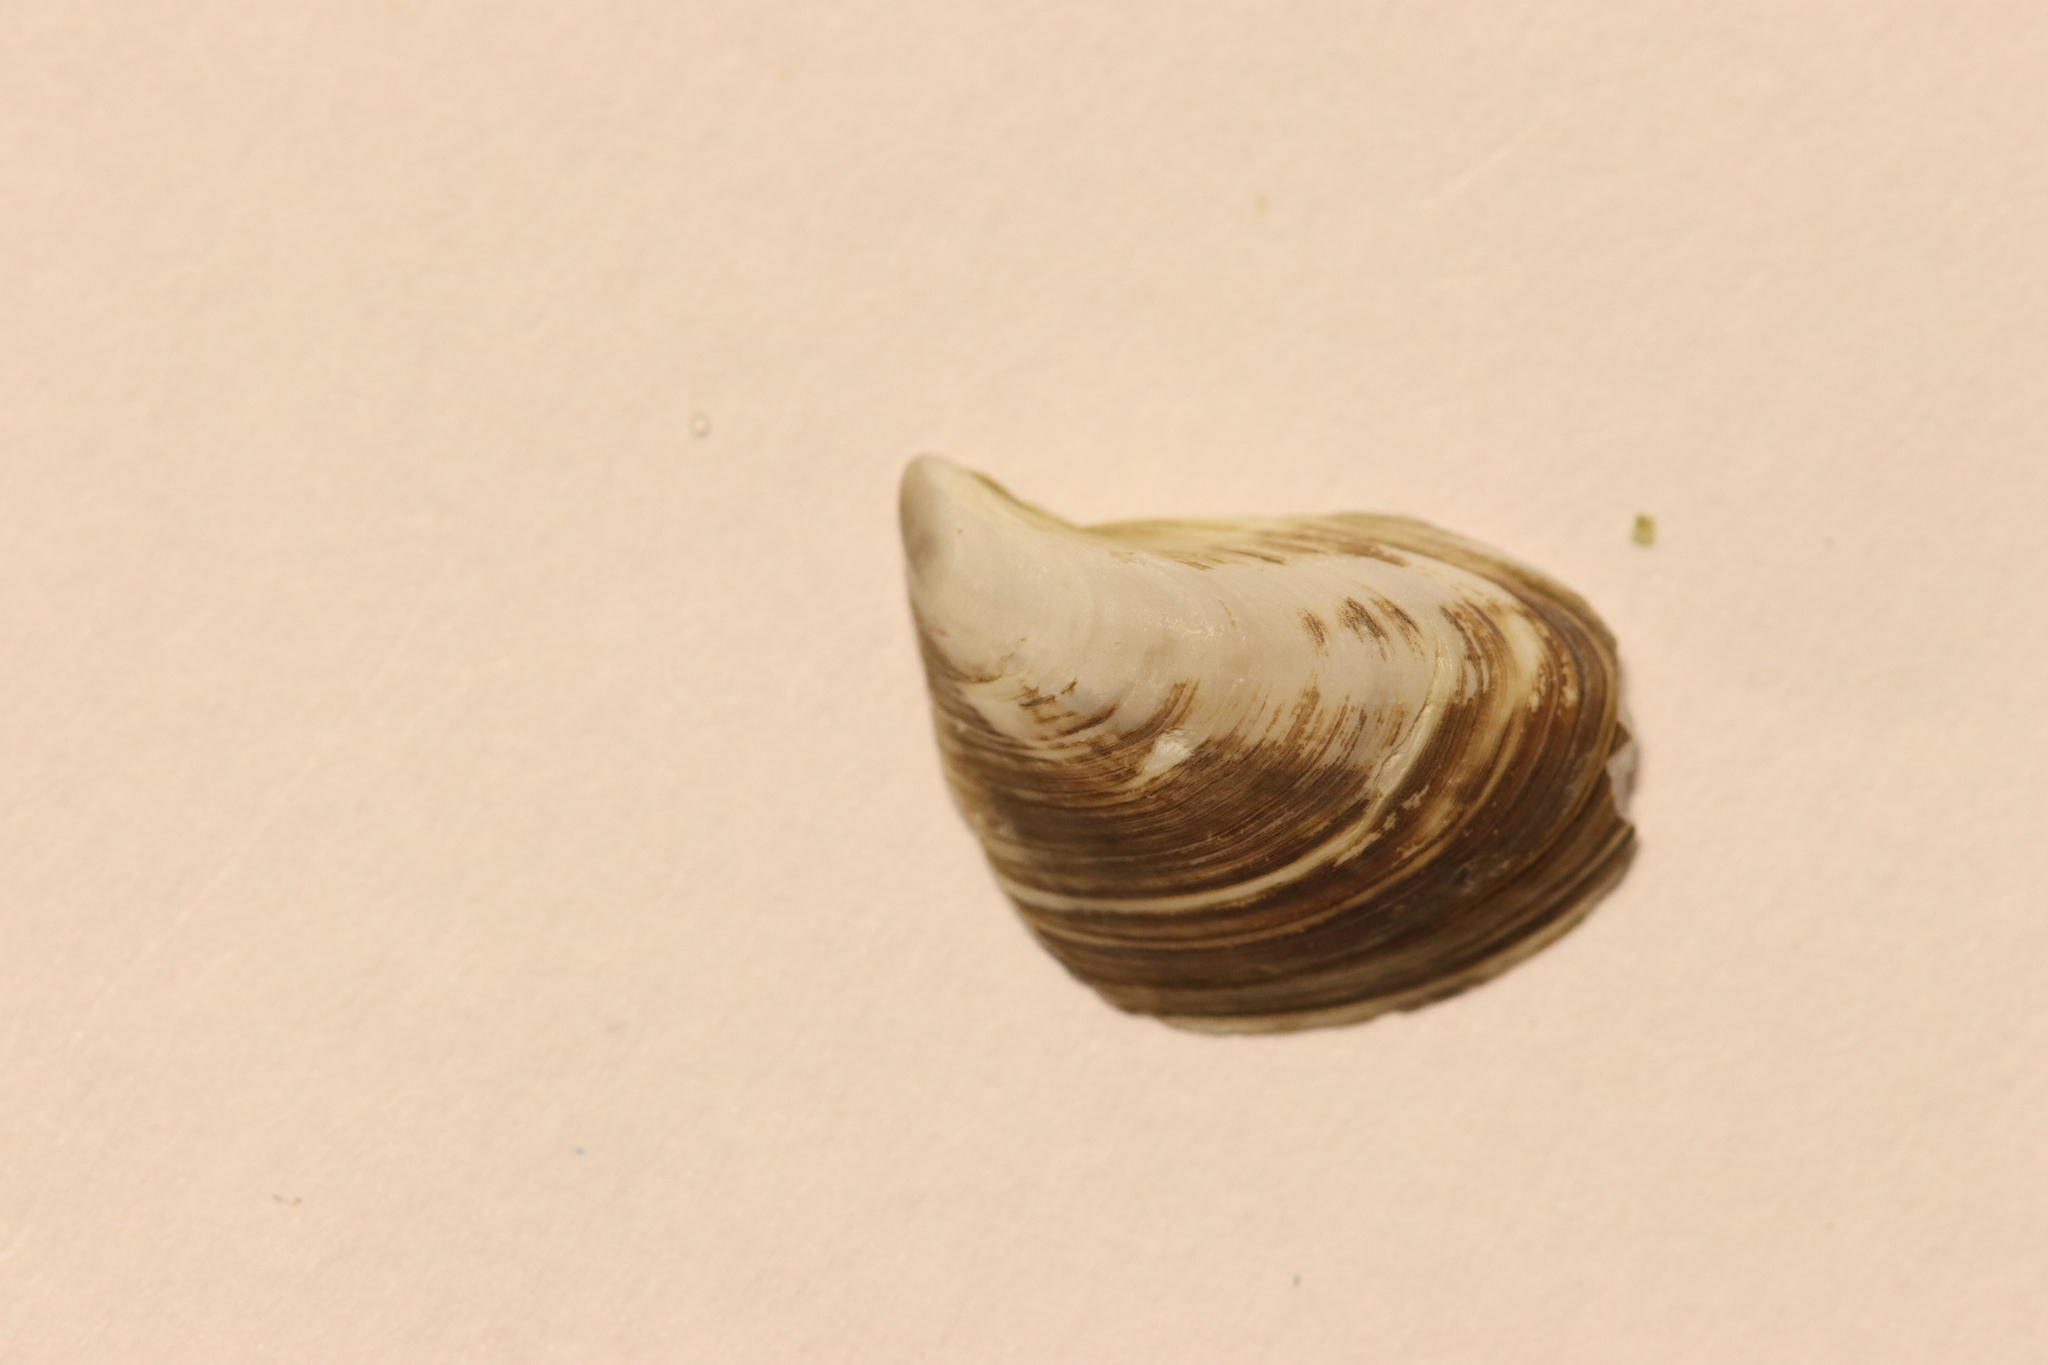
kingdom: Animalia
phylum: Mollusca
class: Bivalvia
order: Myida
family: Dreissenidae
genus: Dreissena
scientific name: Dreissena bugensis
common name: Quagga mussel
